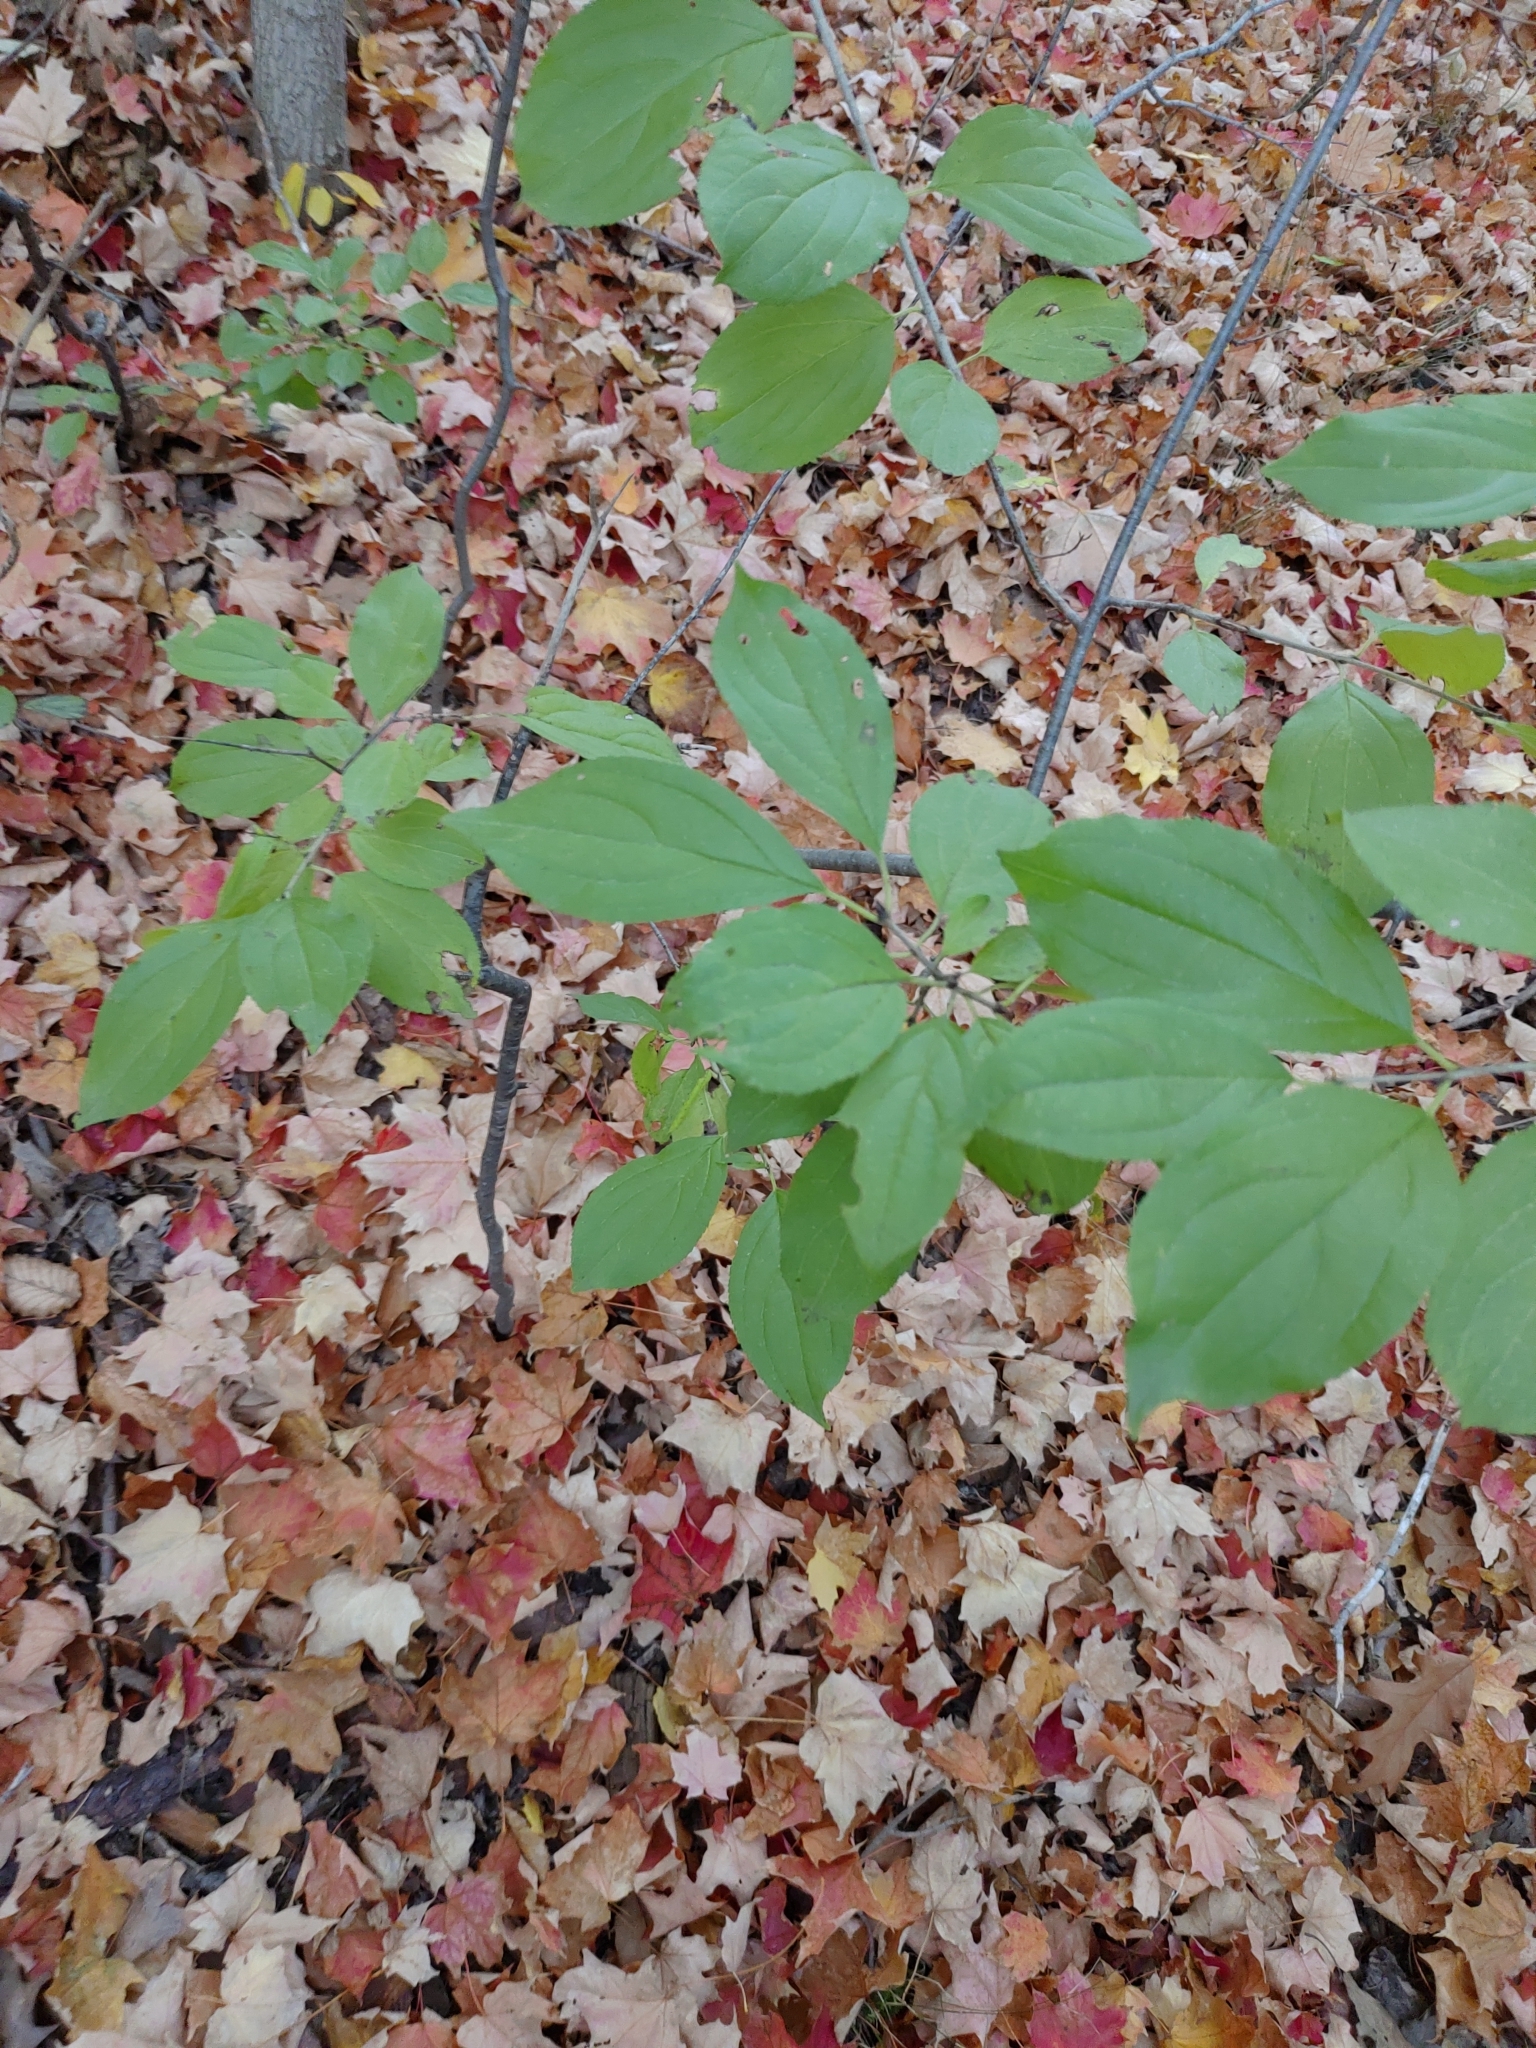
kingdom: Plantae
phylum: Tracheophyta
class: Magnoliopsida
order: Rosales
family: Rhamnaceae
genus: Rhamnus
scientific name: Rhamnus cathartica
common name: Common buckthorn
